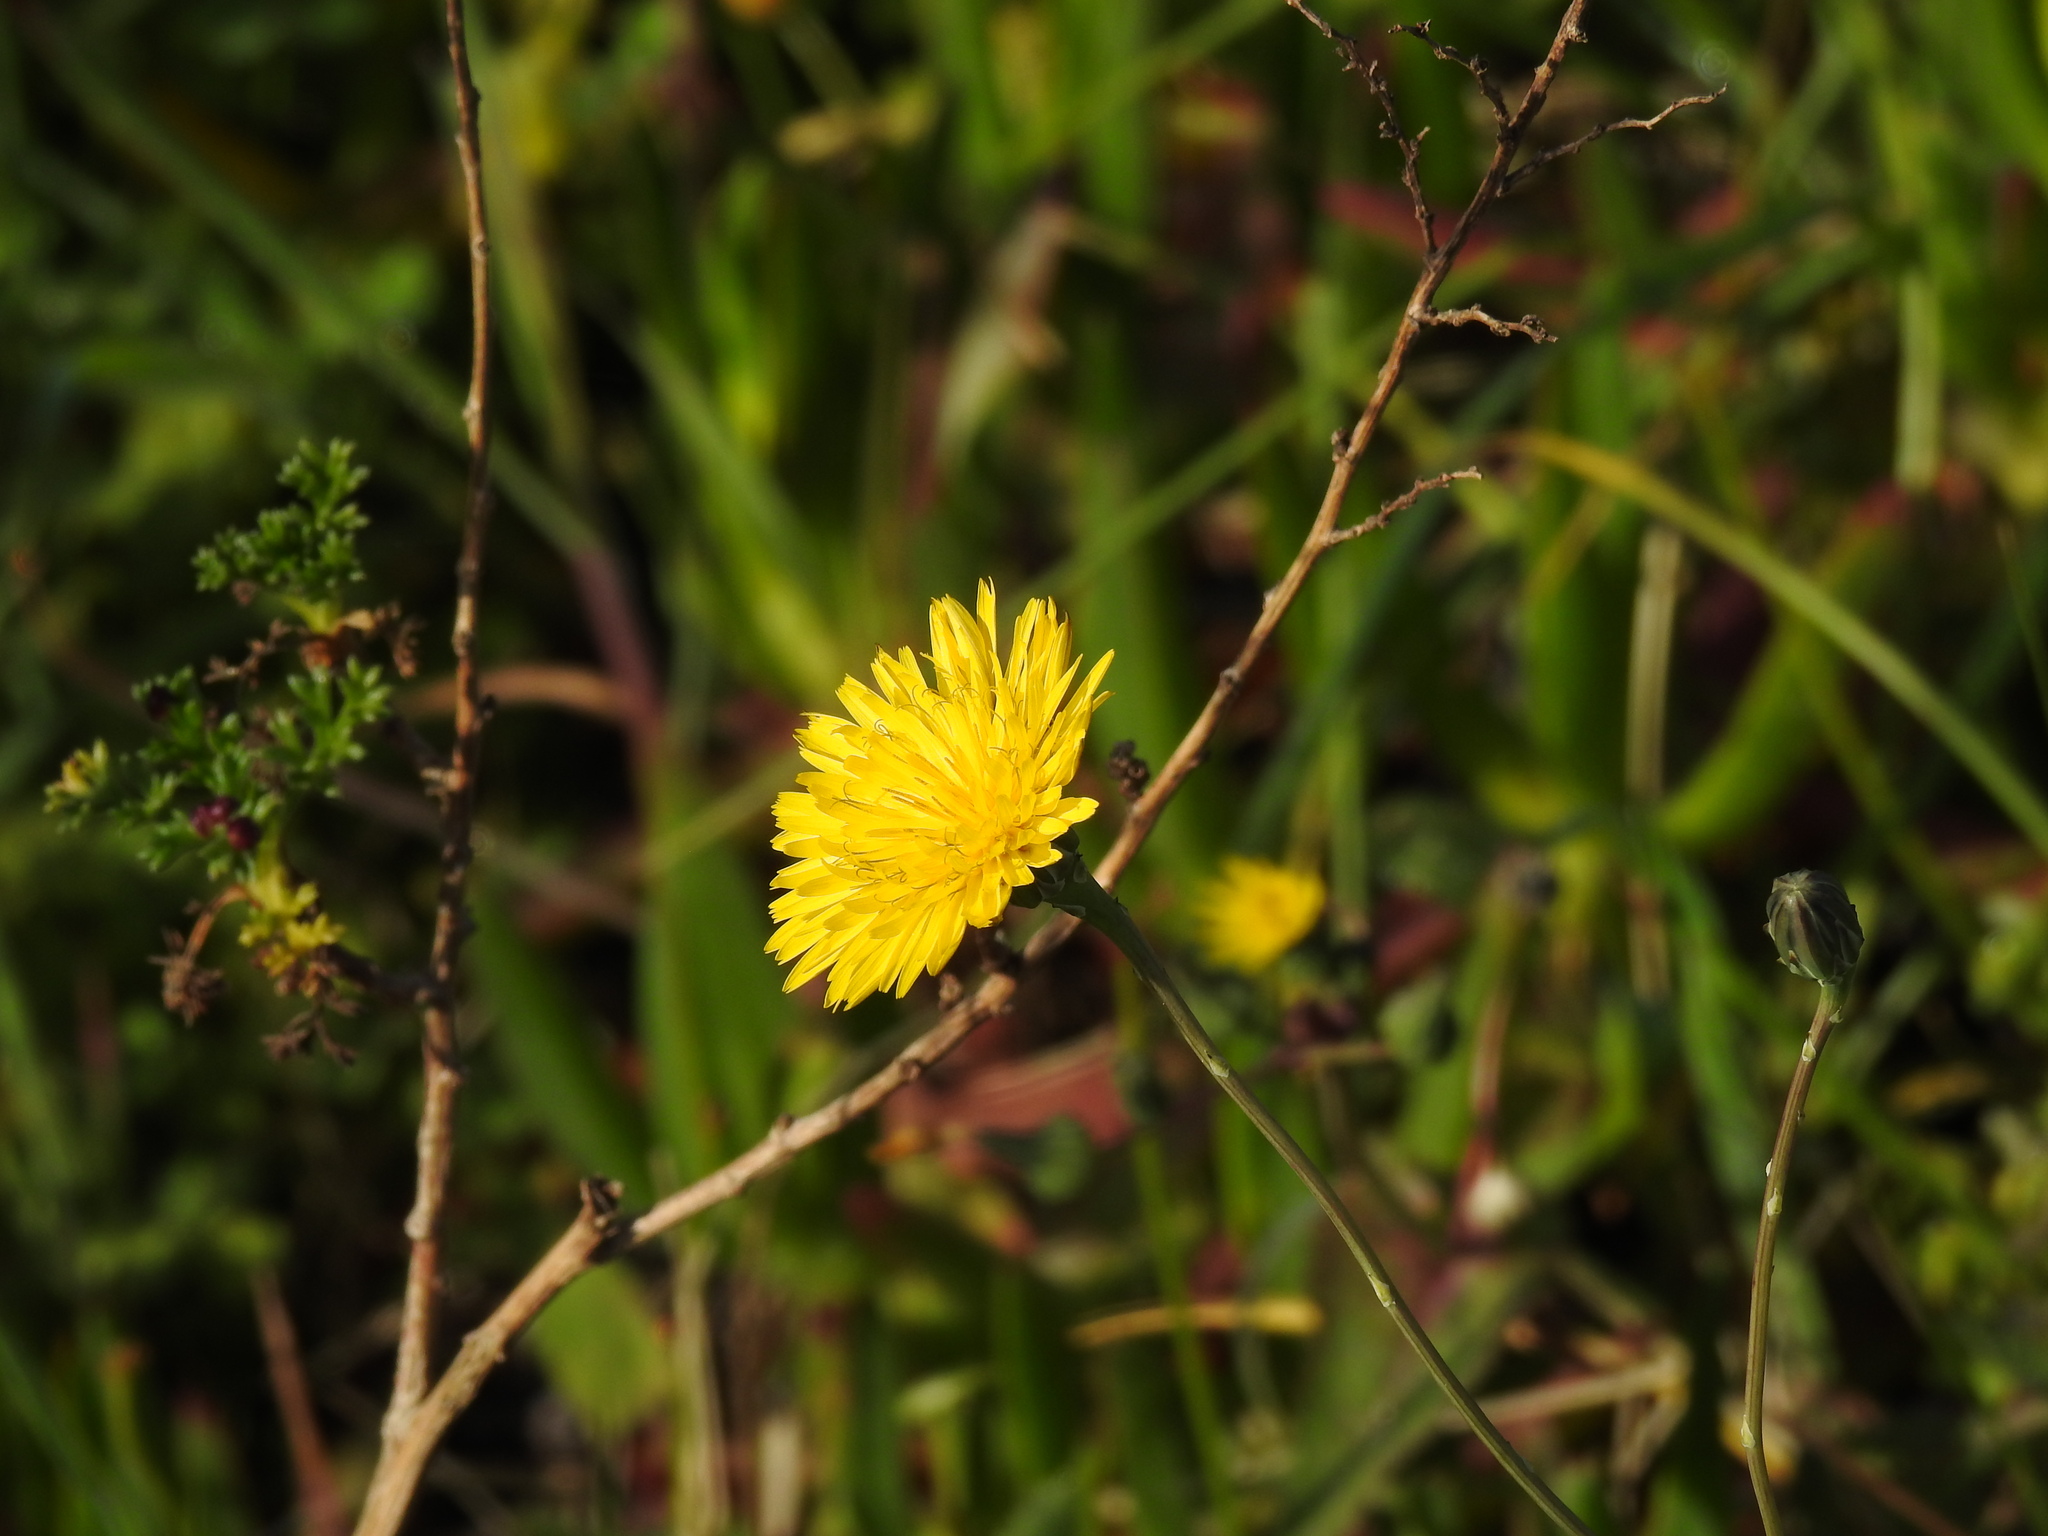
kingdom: Plantae
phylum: Tracheophyta
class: Magnoliopsida
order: Asterales
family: Asteraceae
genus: Reichardia
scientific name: Reichardia picroides
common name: Common brighteyes
